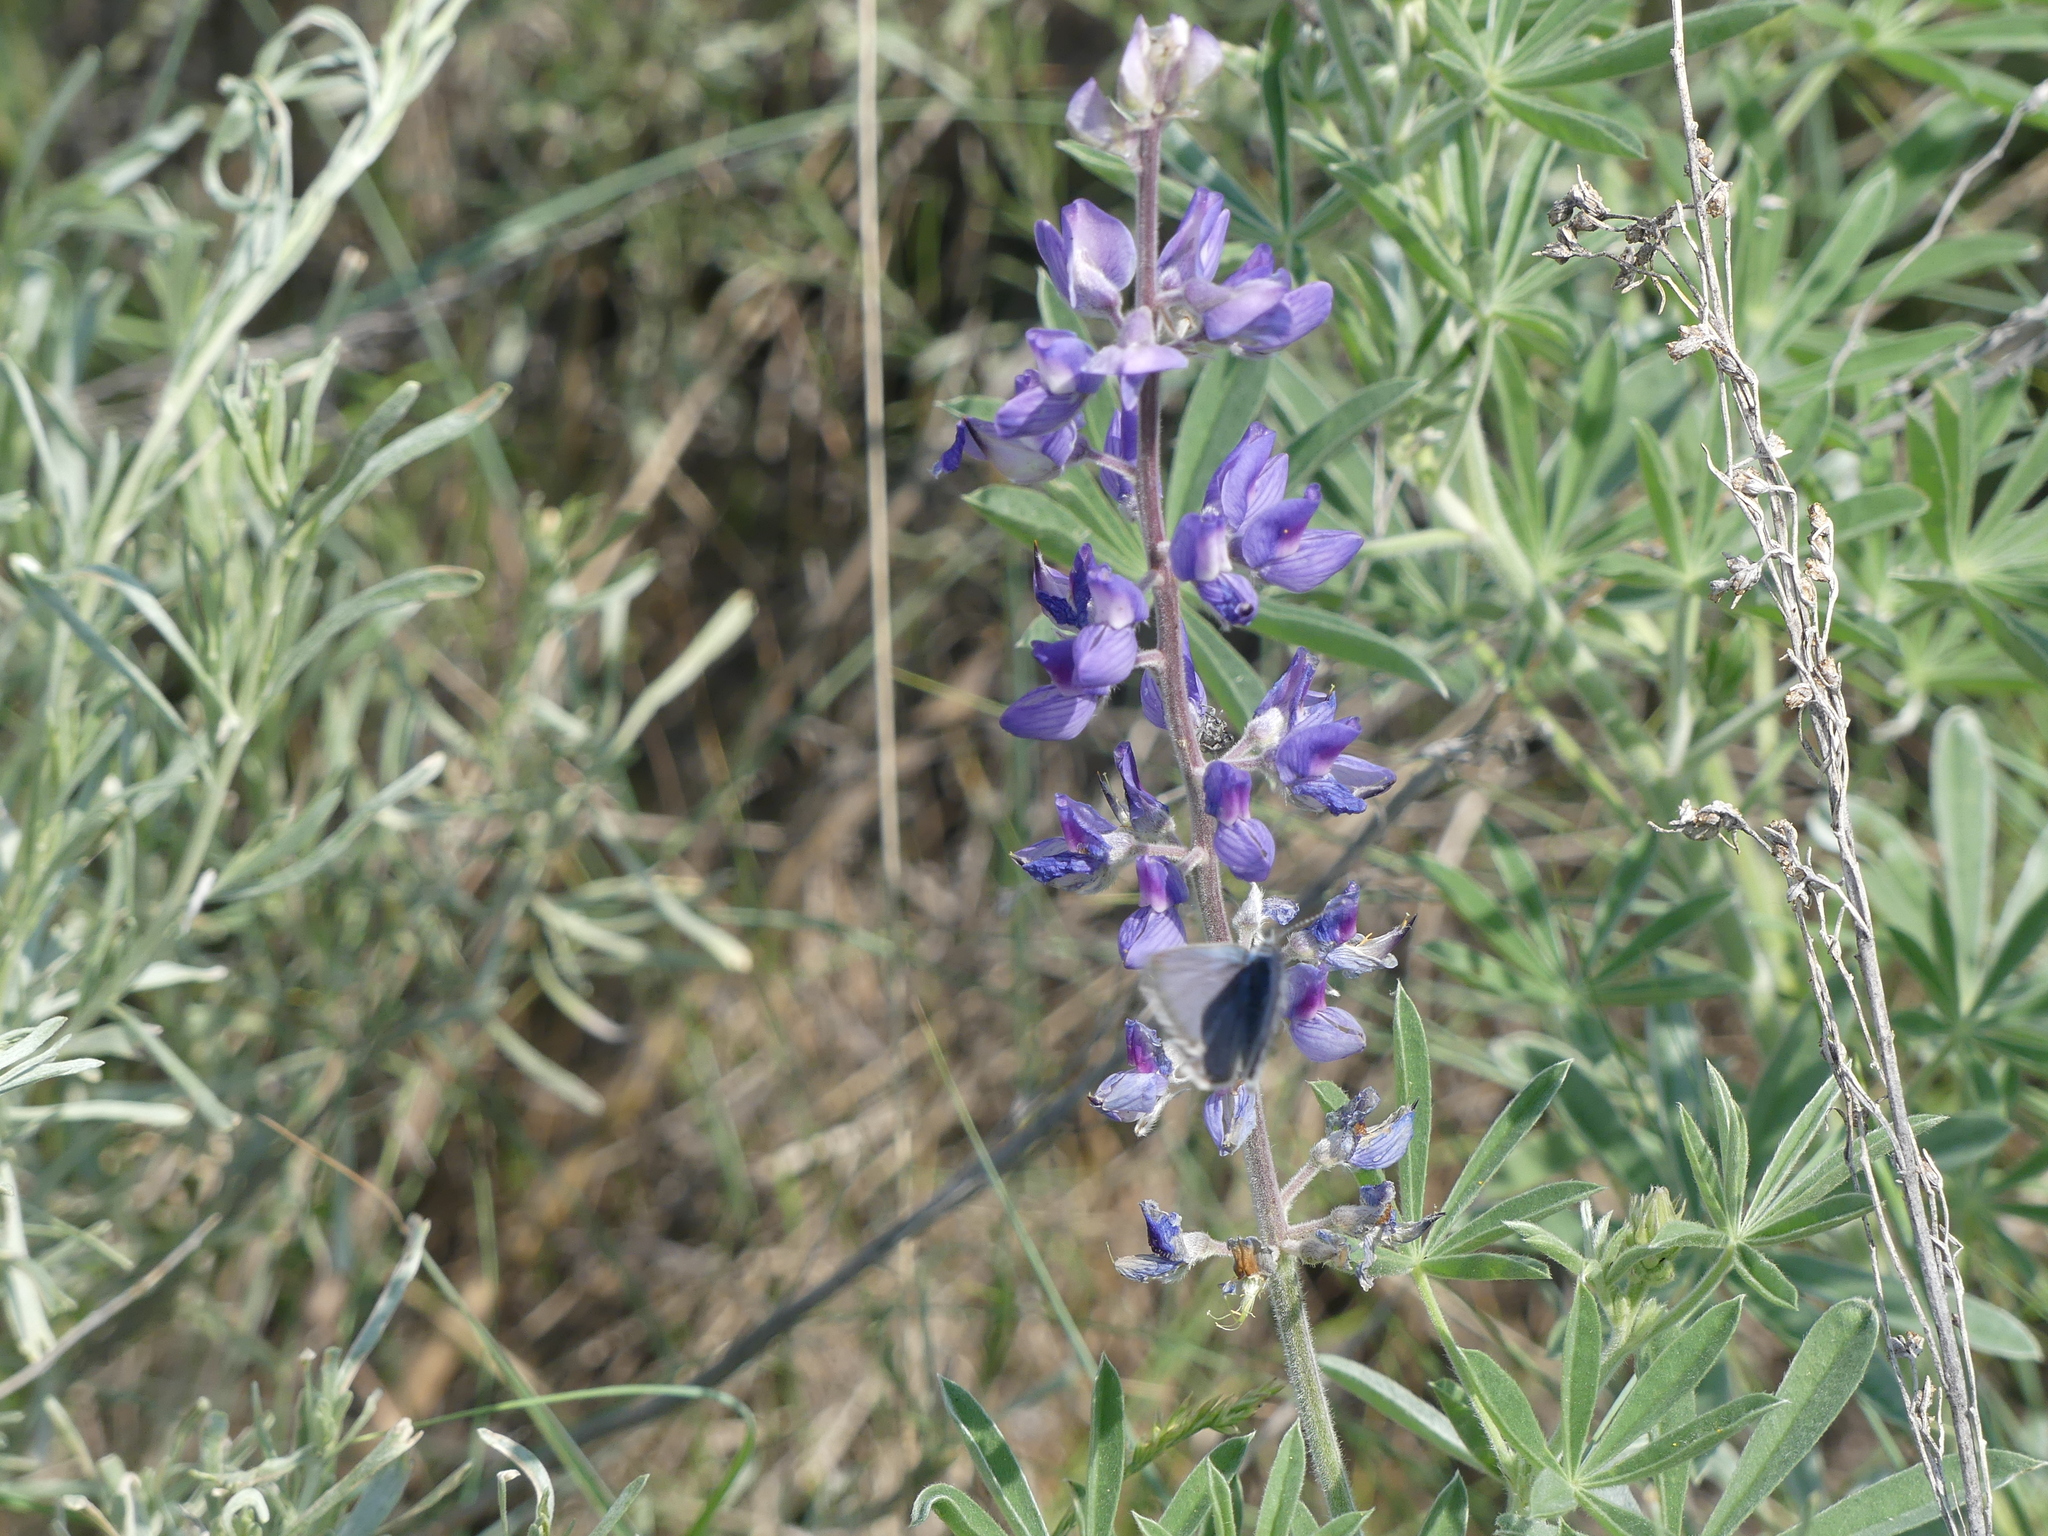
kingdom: Animalia
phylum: Arthropoda
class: Insecta
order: Lepidoptera
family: Lycaenidae
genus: Icaricia
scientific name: Icaricia icarioides
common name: Boisduval's blue
